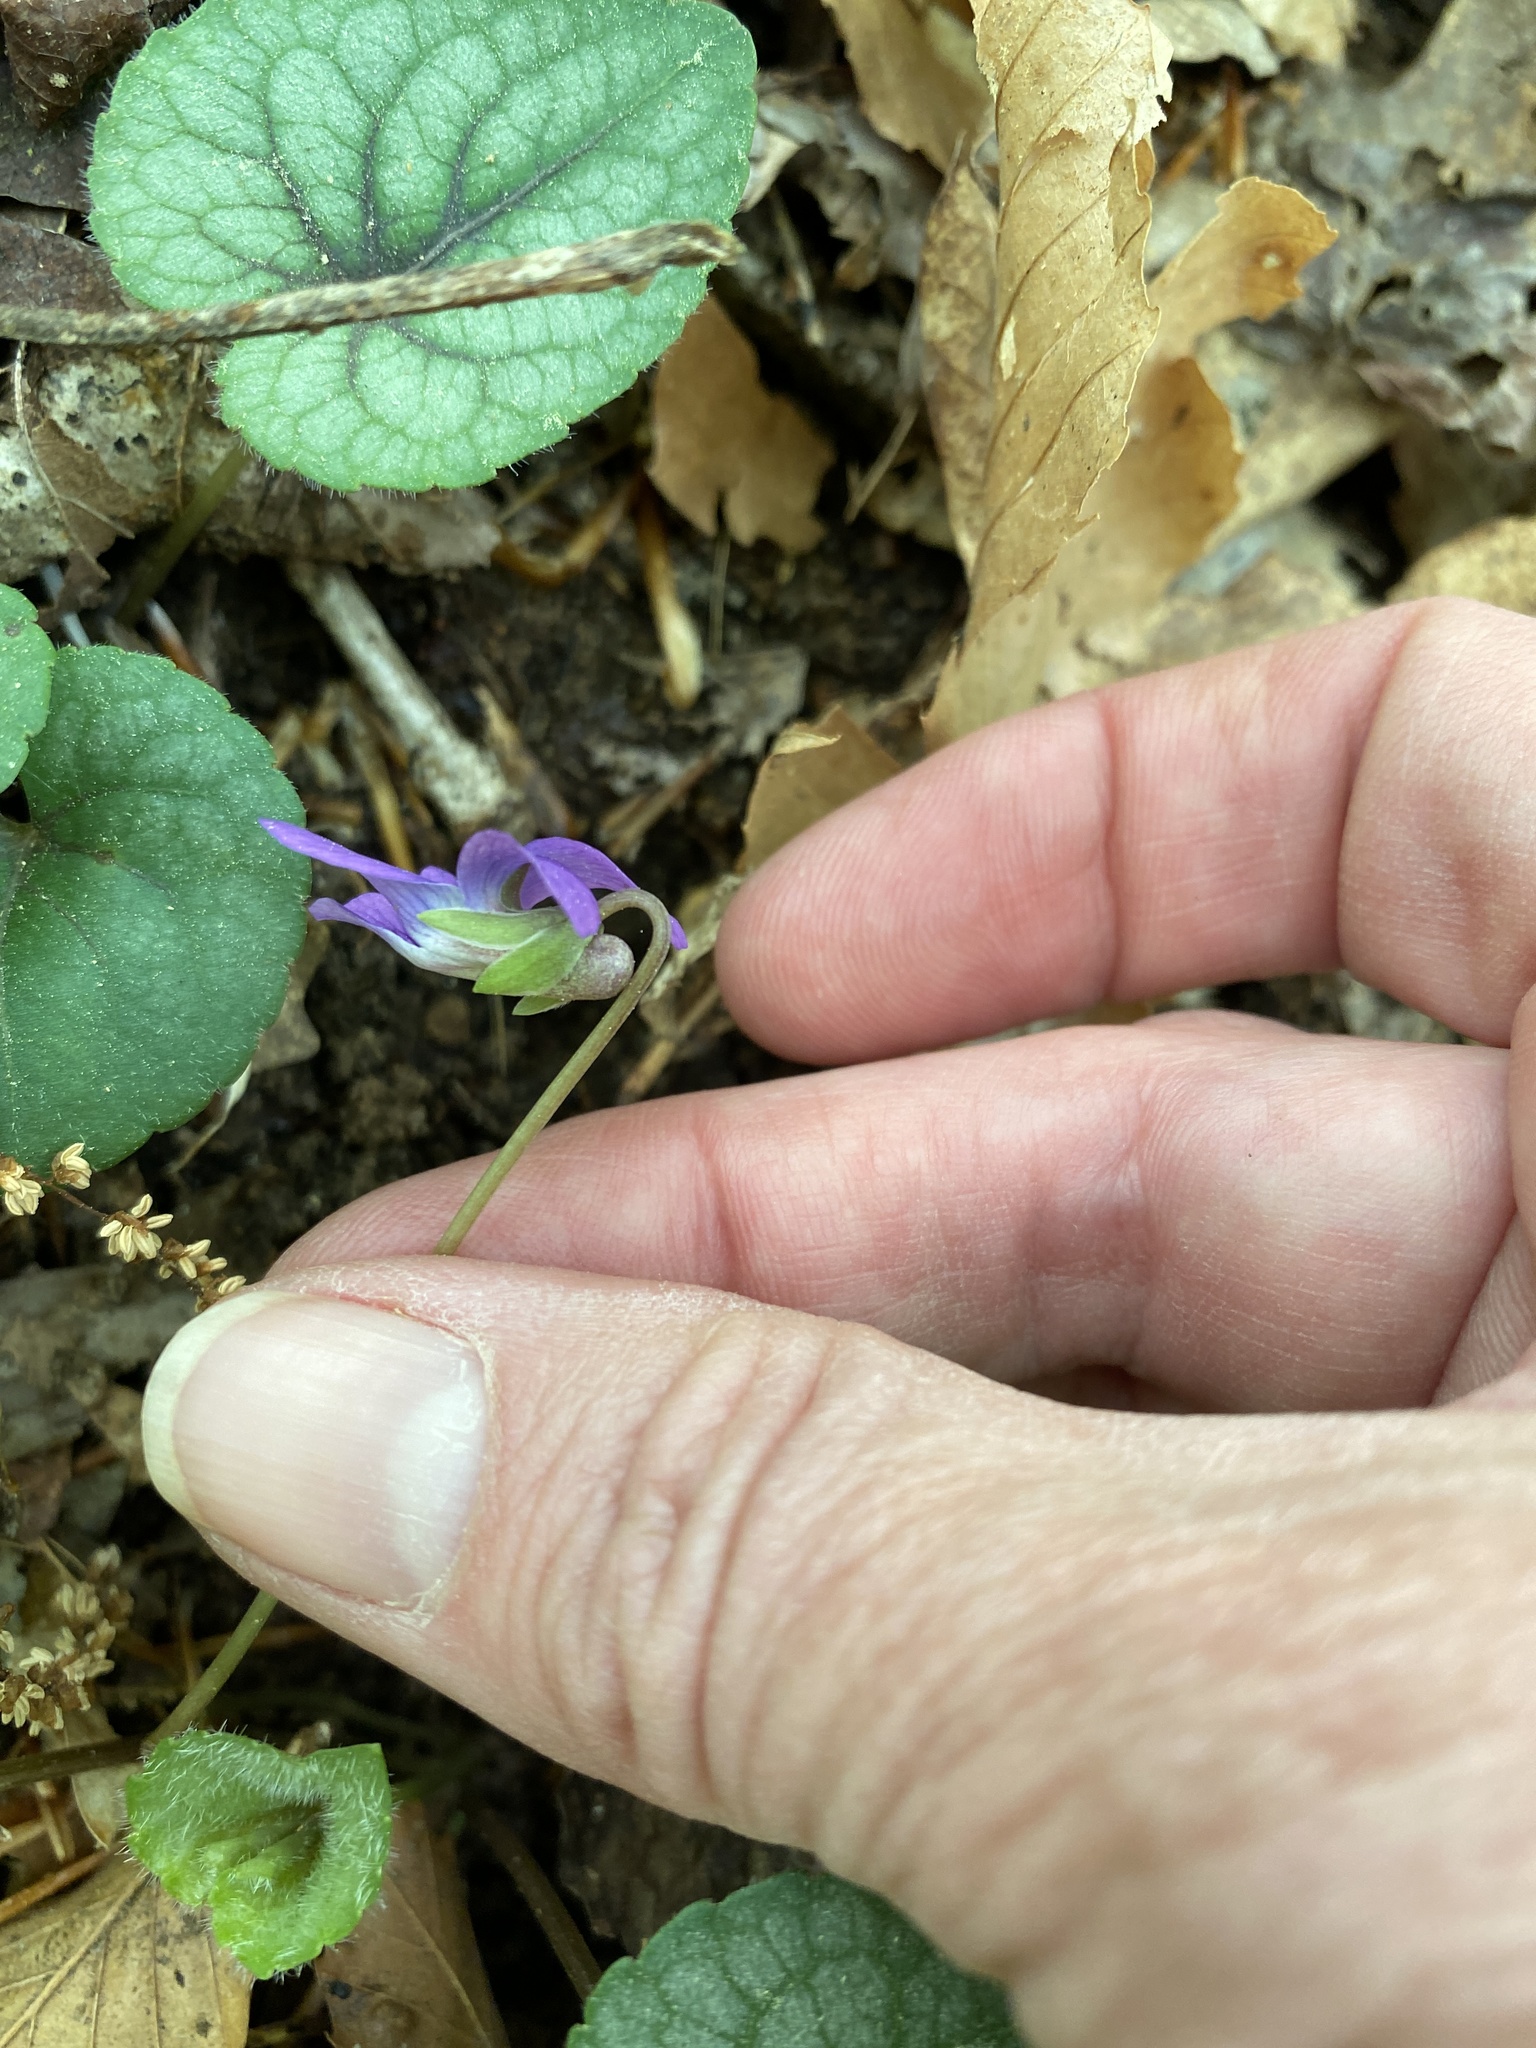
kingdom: Plantae
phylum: Tracheophyta
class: Magnoliopsida
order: Malpighiales
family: Violaceae
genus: Viola
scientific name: Viola hirsutula
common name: Southern wood violet
